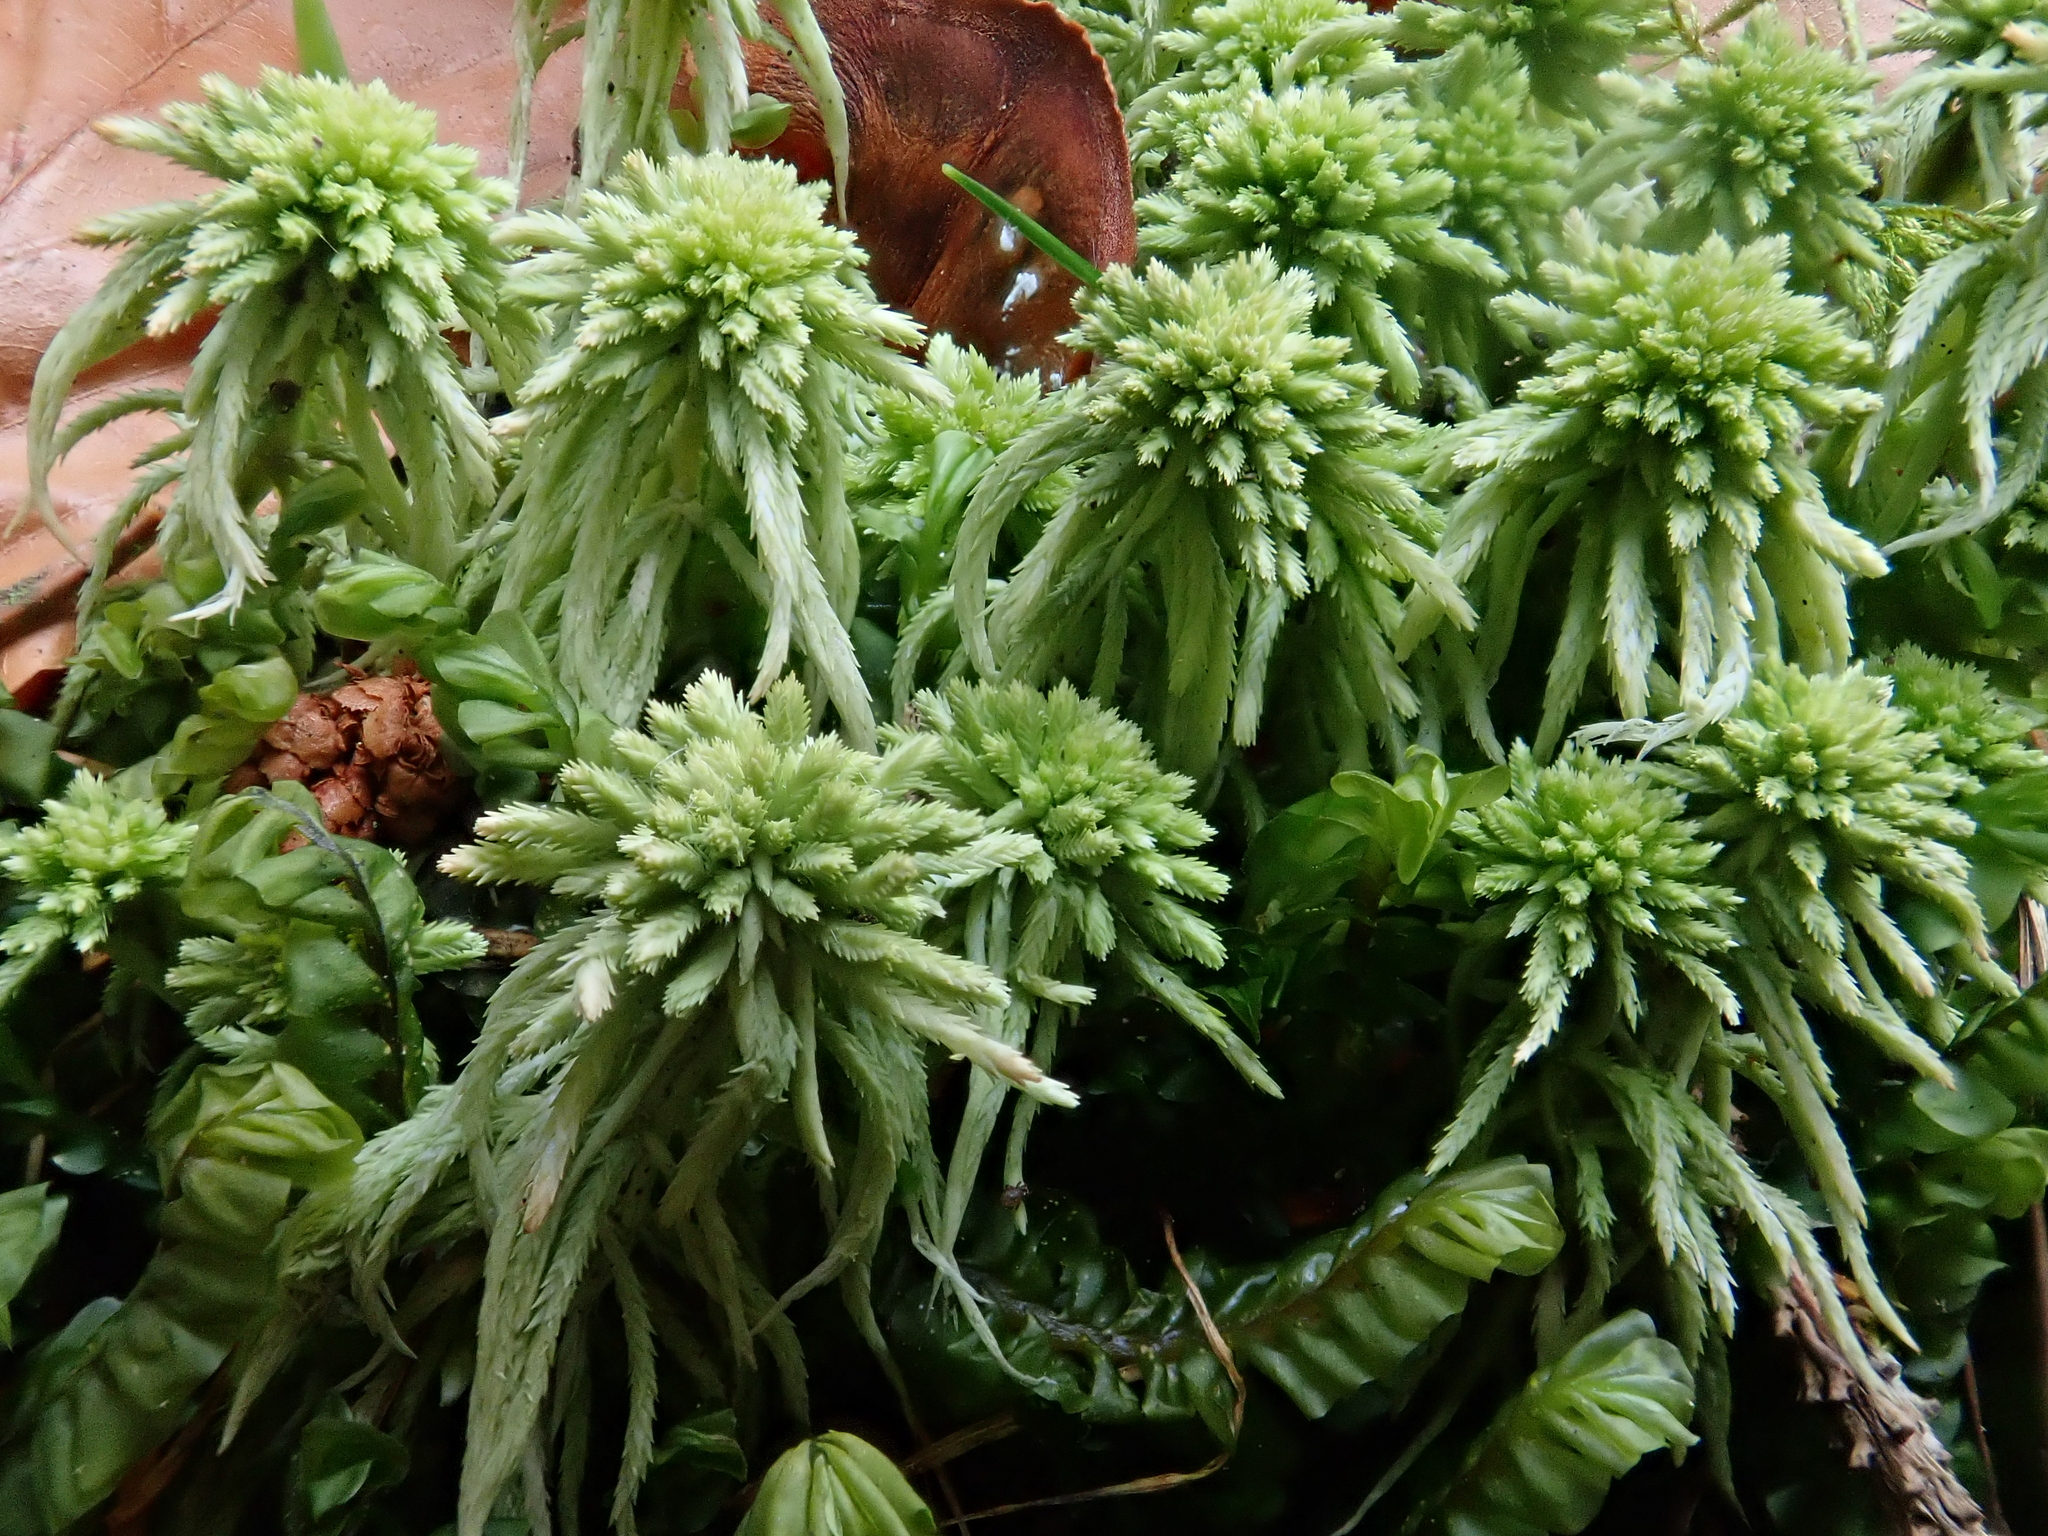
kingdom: Plantae
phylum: Bryophyta
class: Sphagnopsida
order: Sphagnales
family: Sphagnaceae
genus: Sphagnum
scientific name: Sphagnum quinquefarium
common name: Five-ranked peat moss
